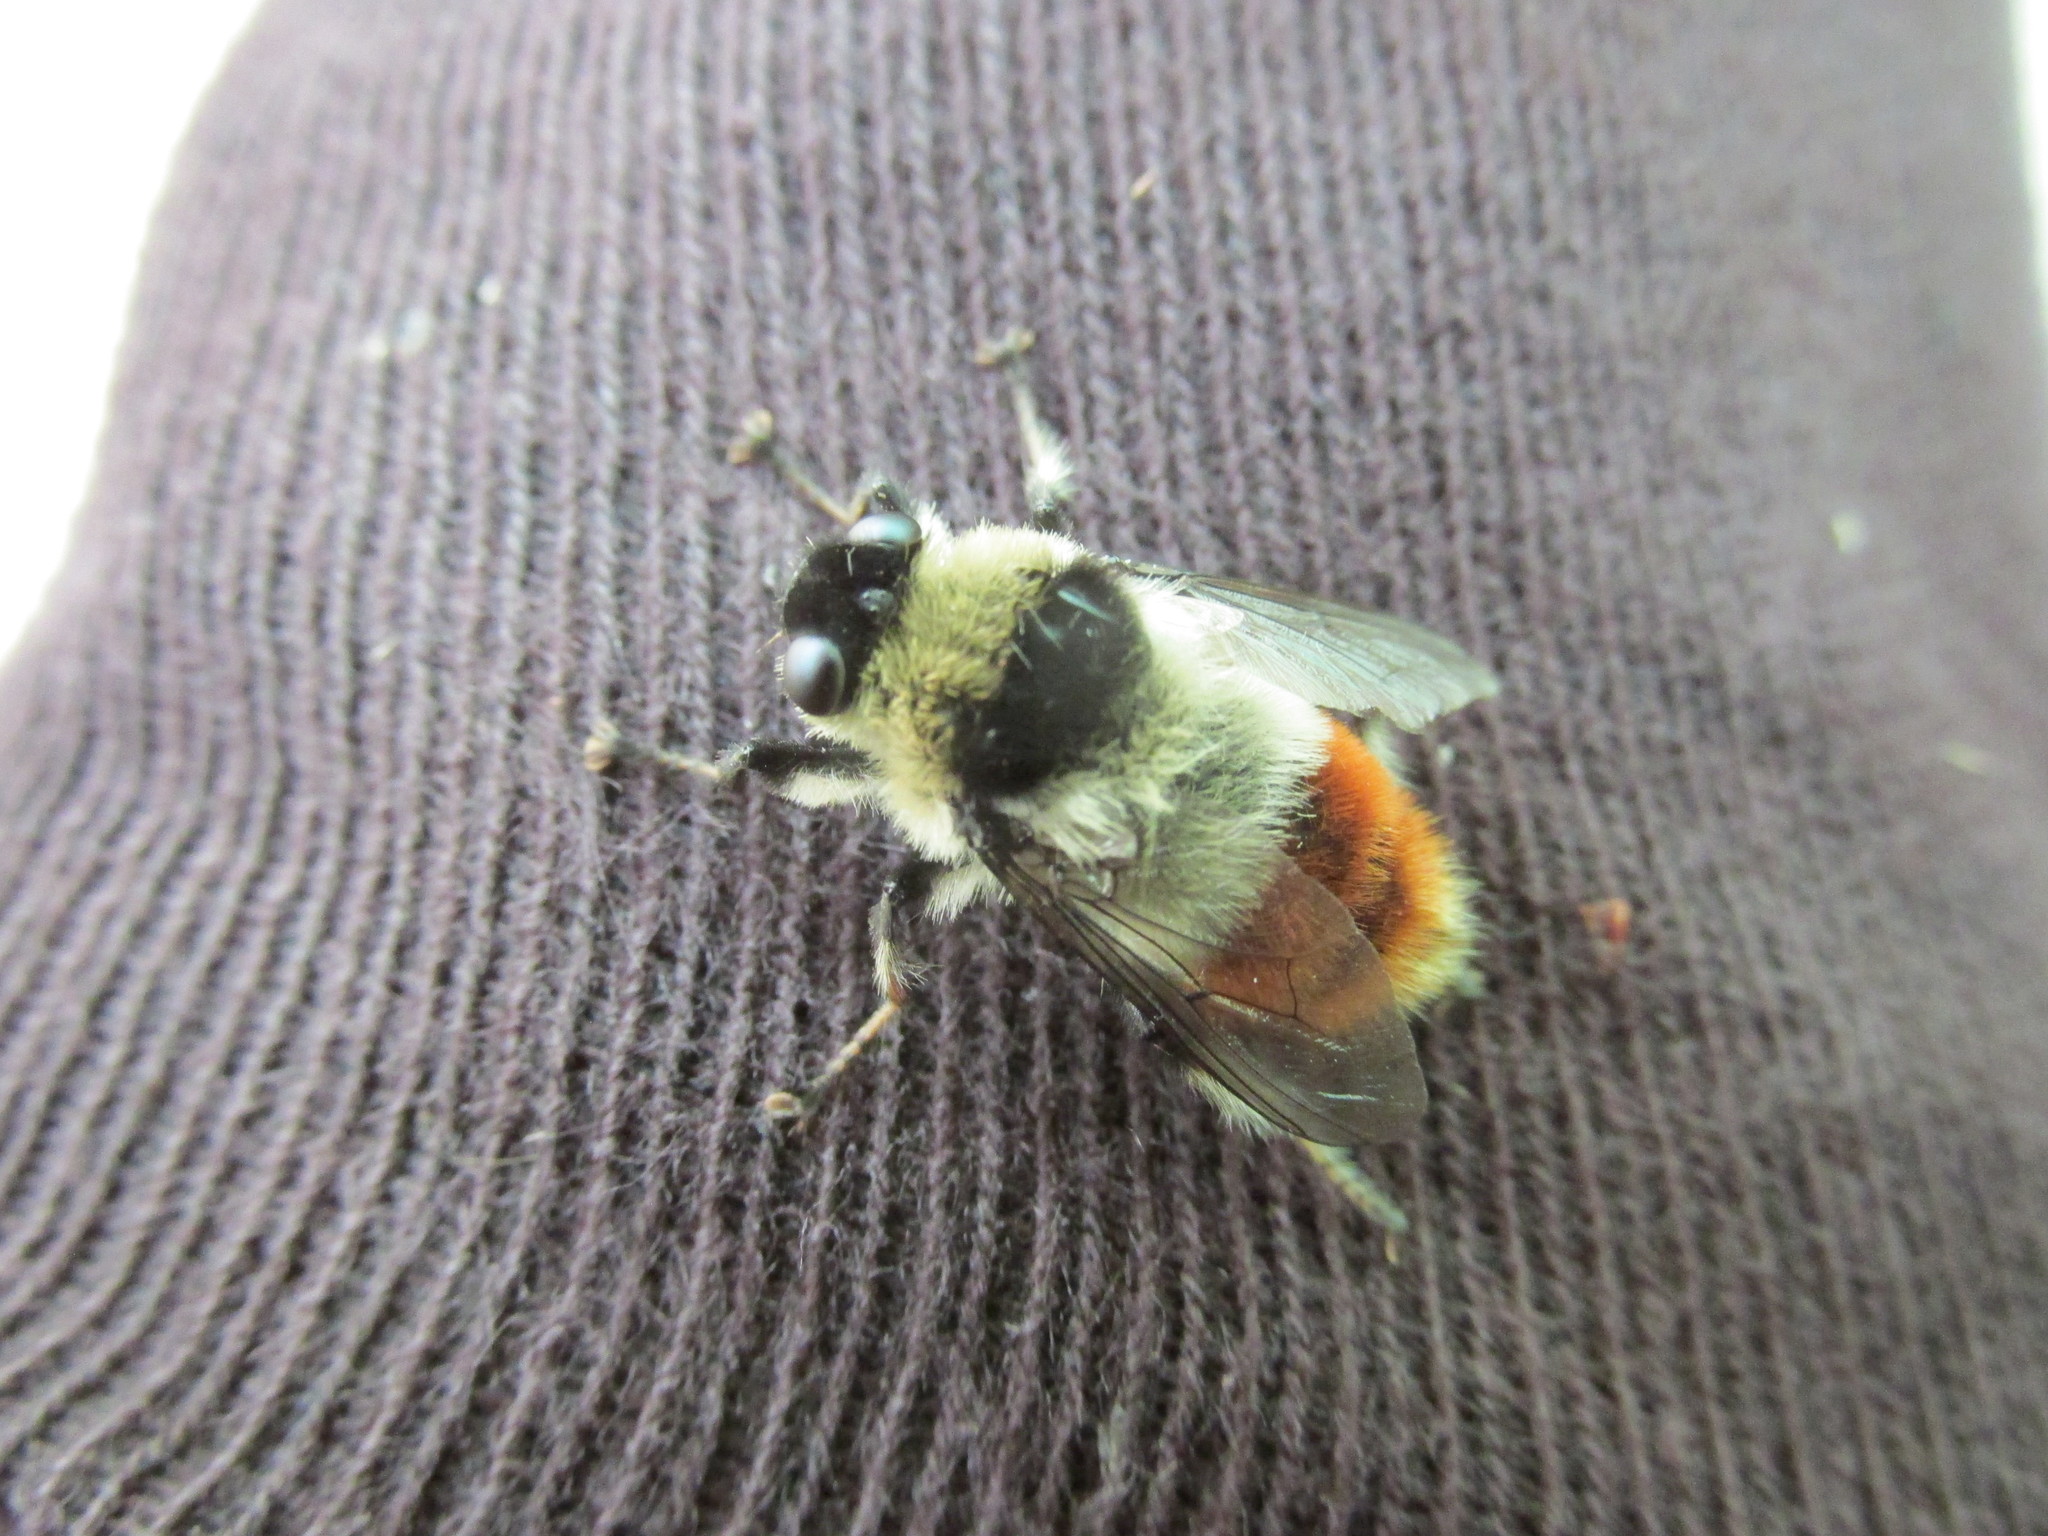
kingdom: Animalia
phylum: Arthropoda
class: Insecta
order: Diptera
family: Oestridae
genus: Hypoderma
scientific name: Hypoderma tarandi
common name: Botfly
